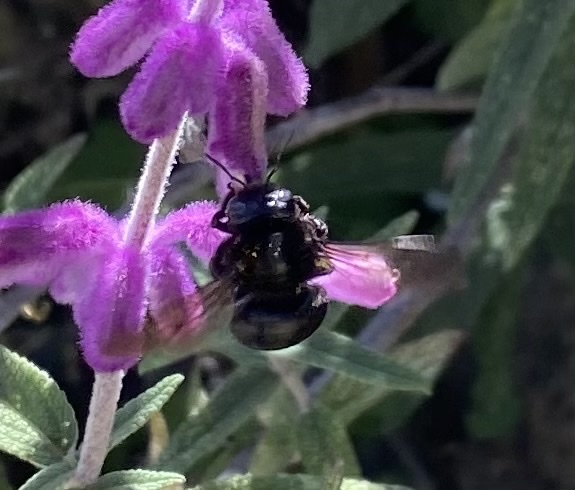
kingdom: Animalia
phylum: Arthropoda
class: Insecta
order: Hymenoptera
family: Apidae
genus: Xylocopa
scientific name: Xylocopa tabaniformis
